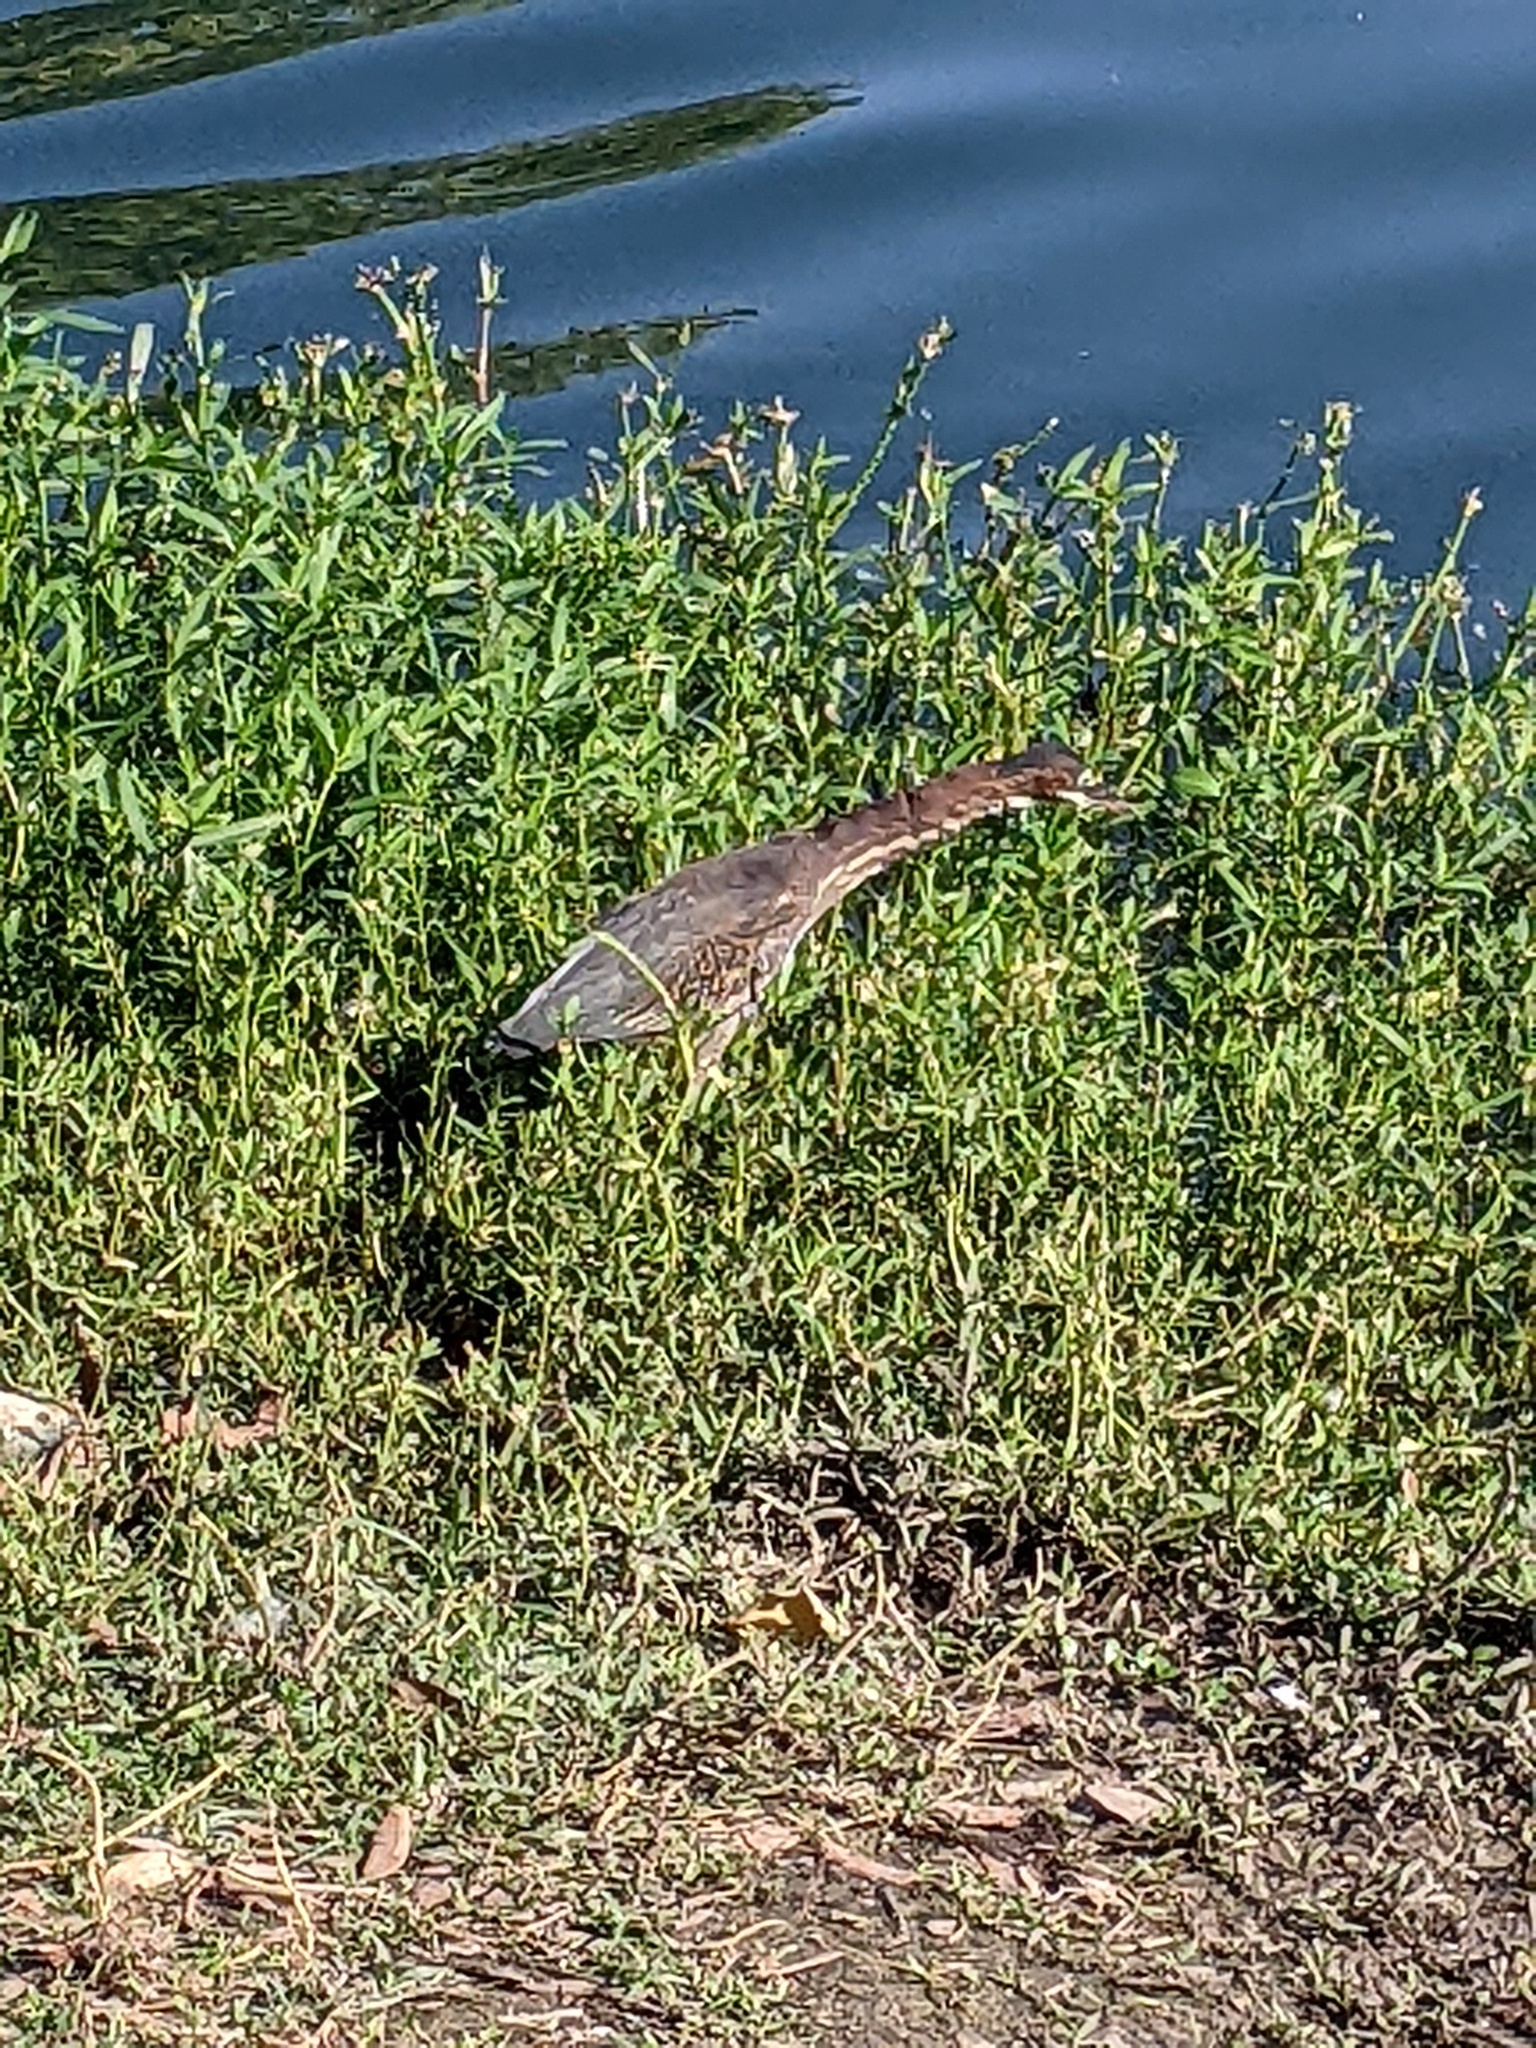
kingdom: Animalia
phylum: Chordata
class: Aves
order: Pelecaniformes
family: Ardeidae
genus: Butorides
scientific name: Butorides virescens
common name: Green heron
